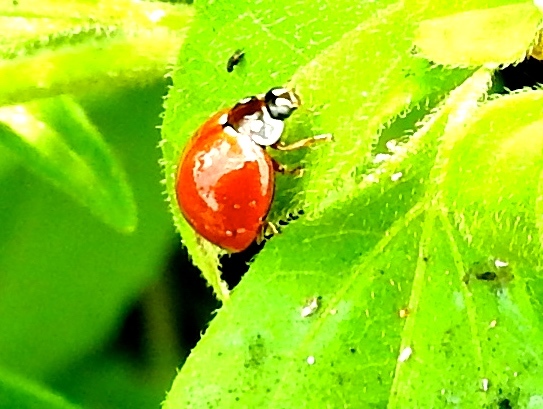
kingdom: Animalia
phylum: Arthropoda
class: Insecta
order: Coleoptera
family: Coccinellidae
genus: Cycloneda
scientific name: Cycloneda sanguinea
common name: Ladybird beetle
